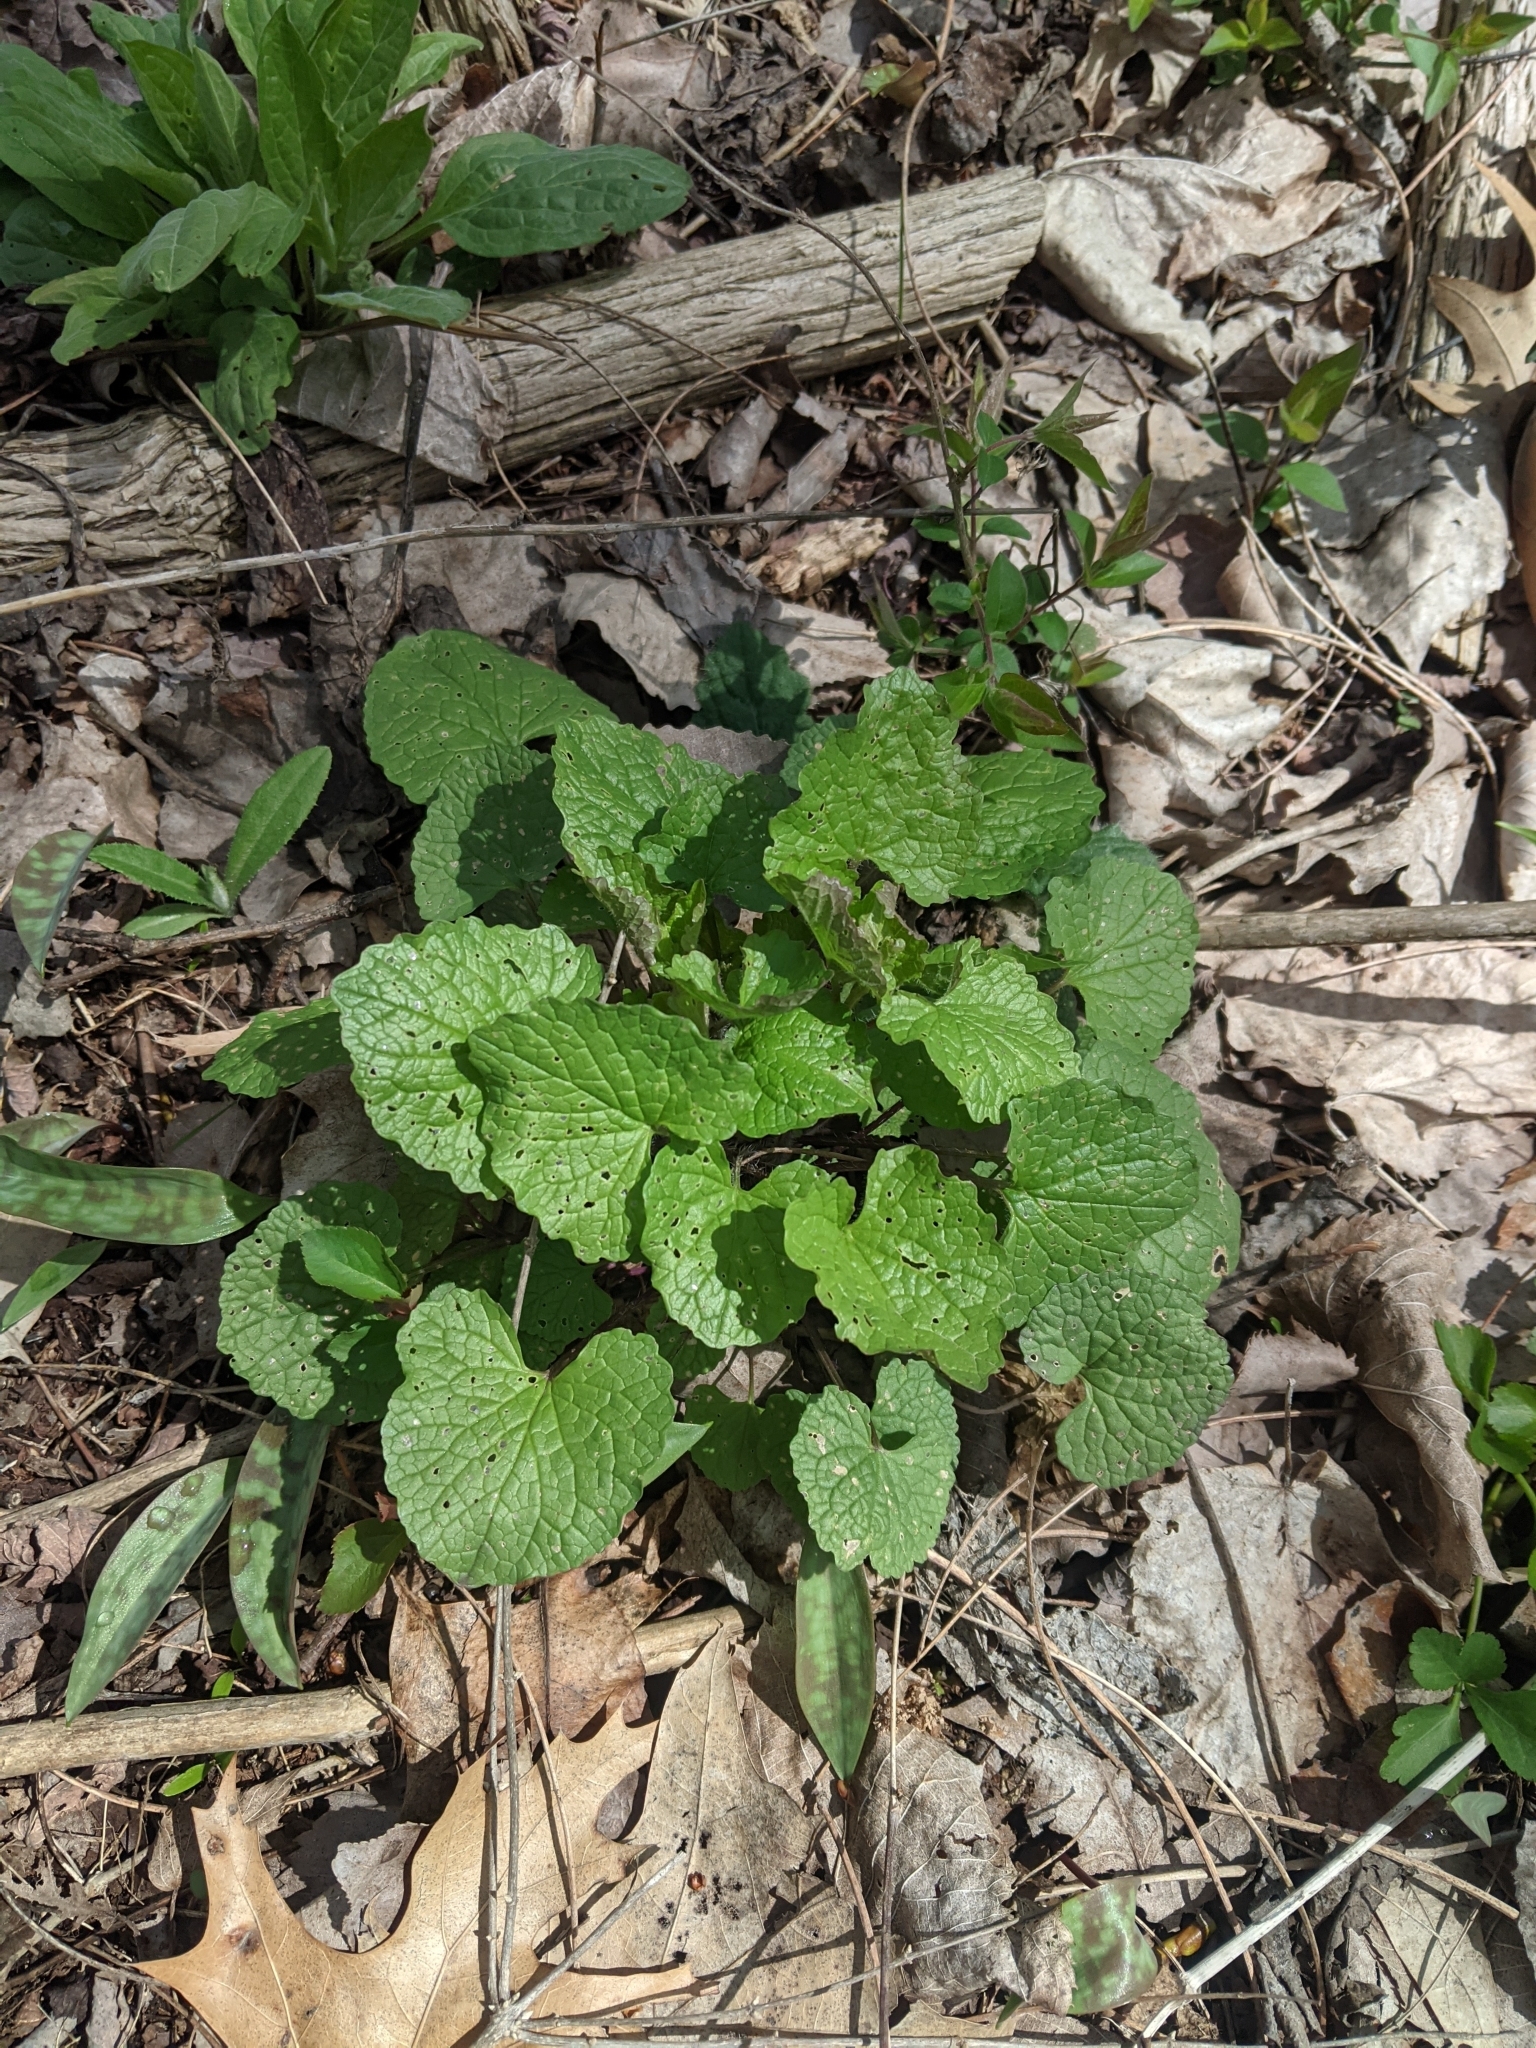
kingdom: Plantae
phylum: Tracheophyta
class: Magnoliopsida
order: Brassicales
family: Brassicaceae
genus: Alliaria
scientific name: Alliaria petiolata
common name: Garlic mustard
